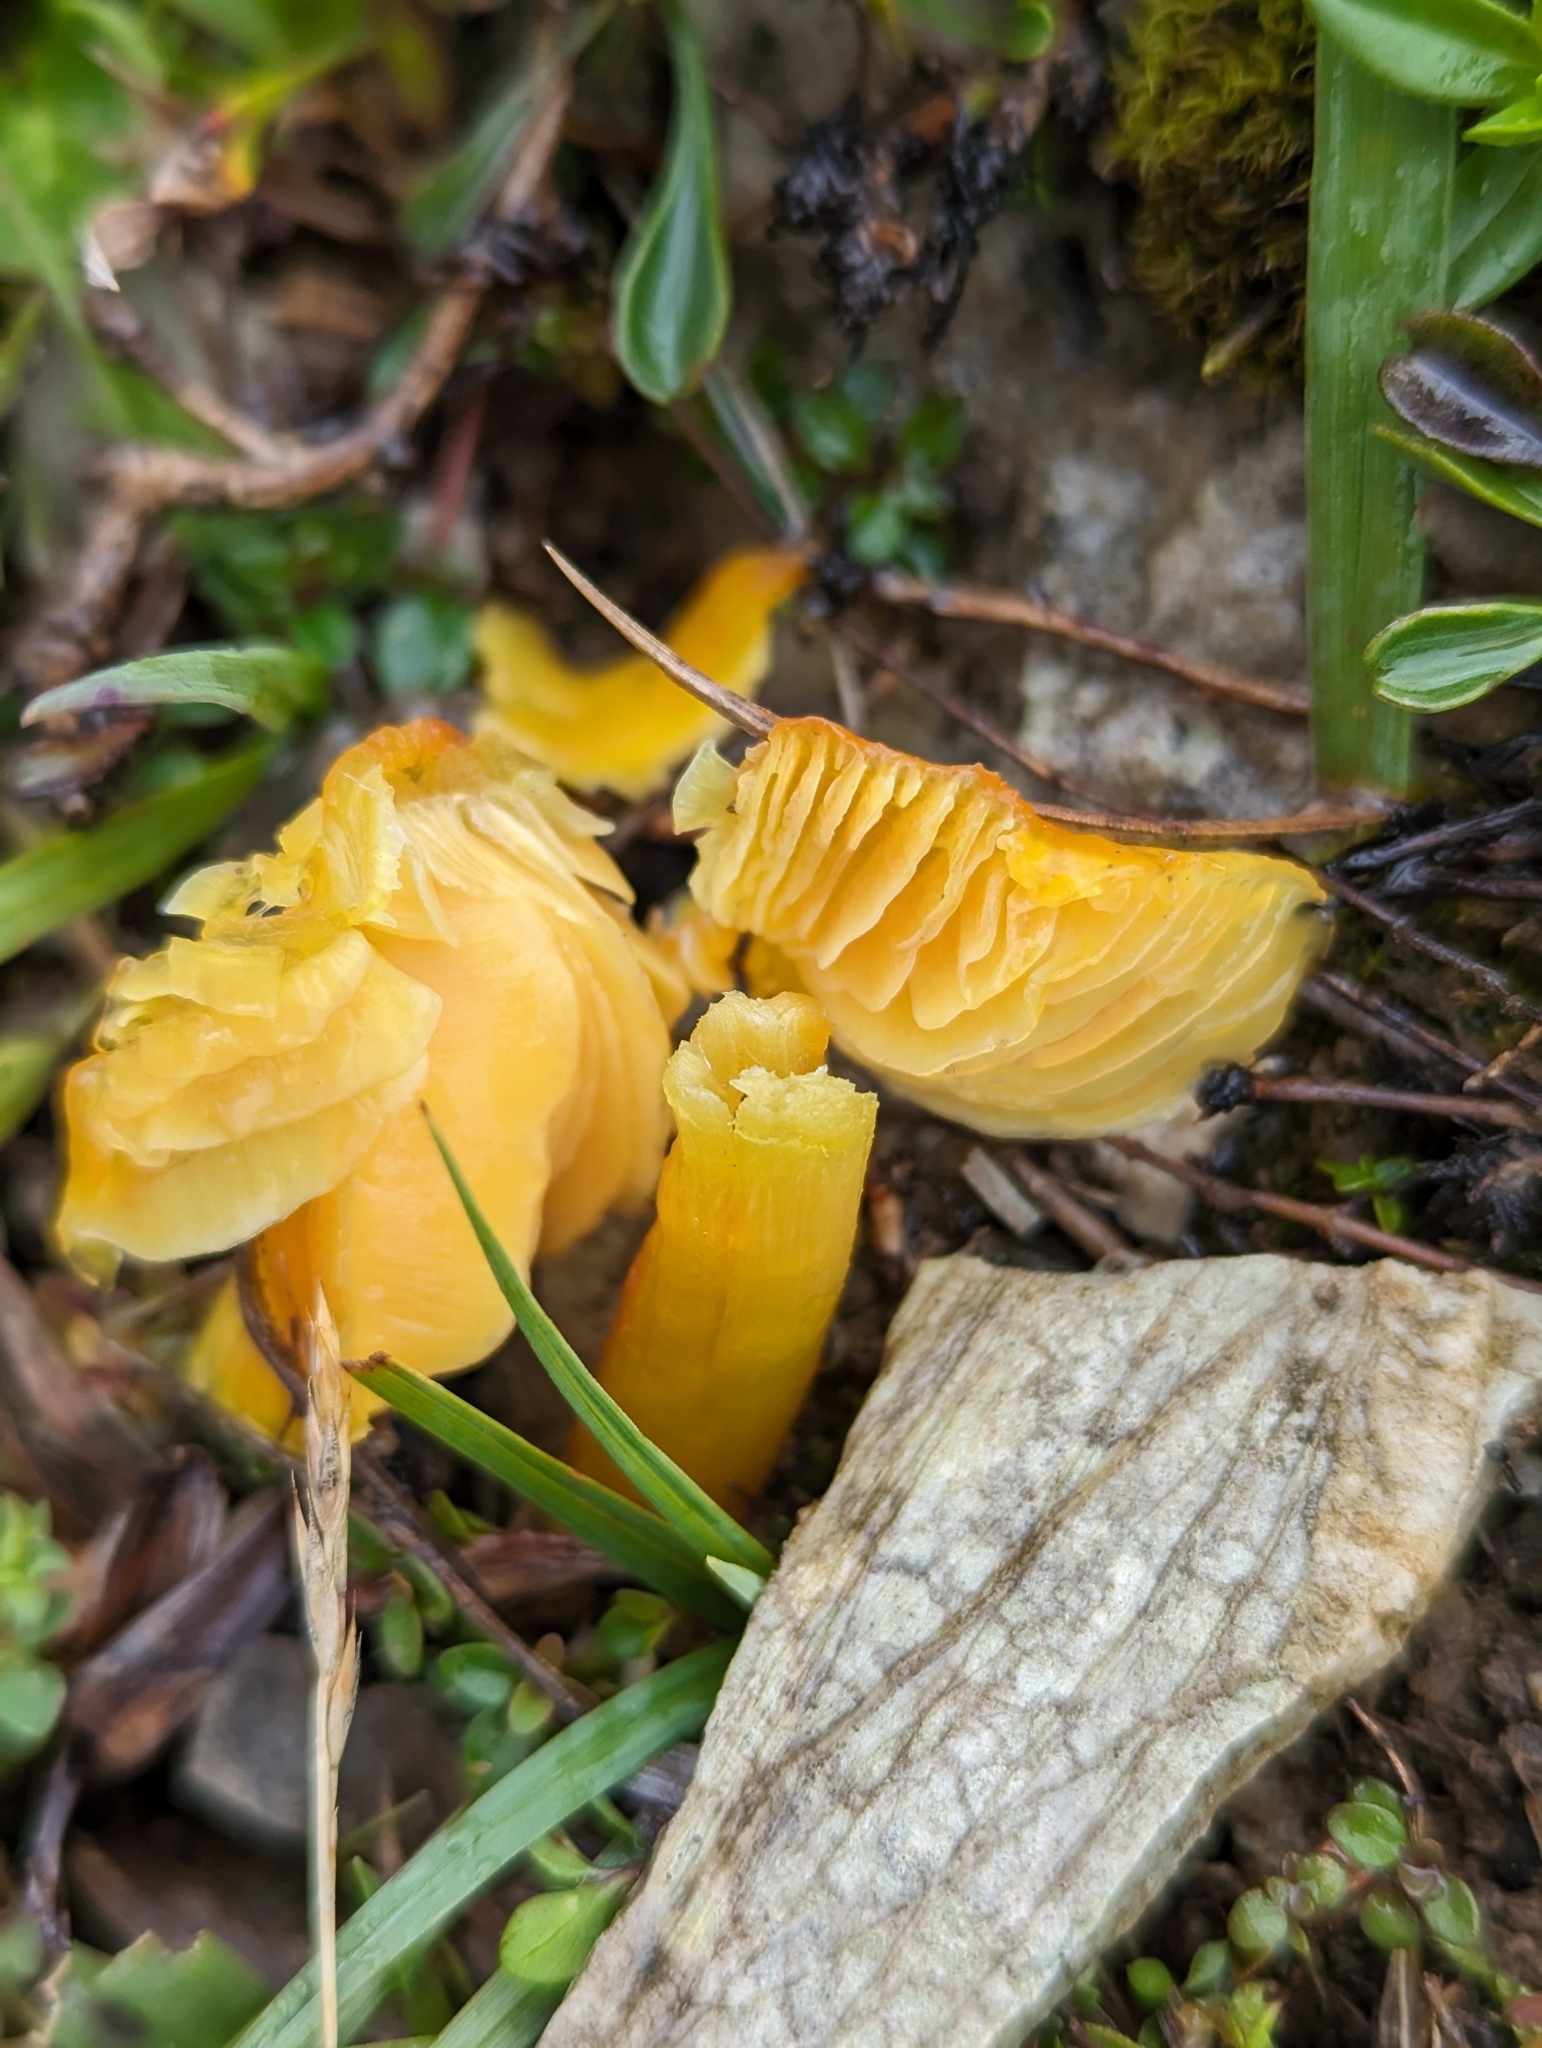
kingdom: Fungi
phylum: Basidiomycota
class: Agaricomycetes
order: Agaricales
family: Hygrophoraceae
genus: Hygrocybe
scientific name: Hygrocybe acutoconica
